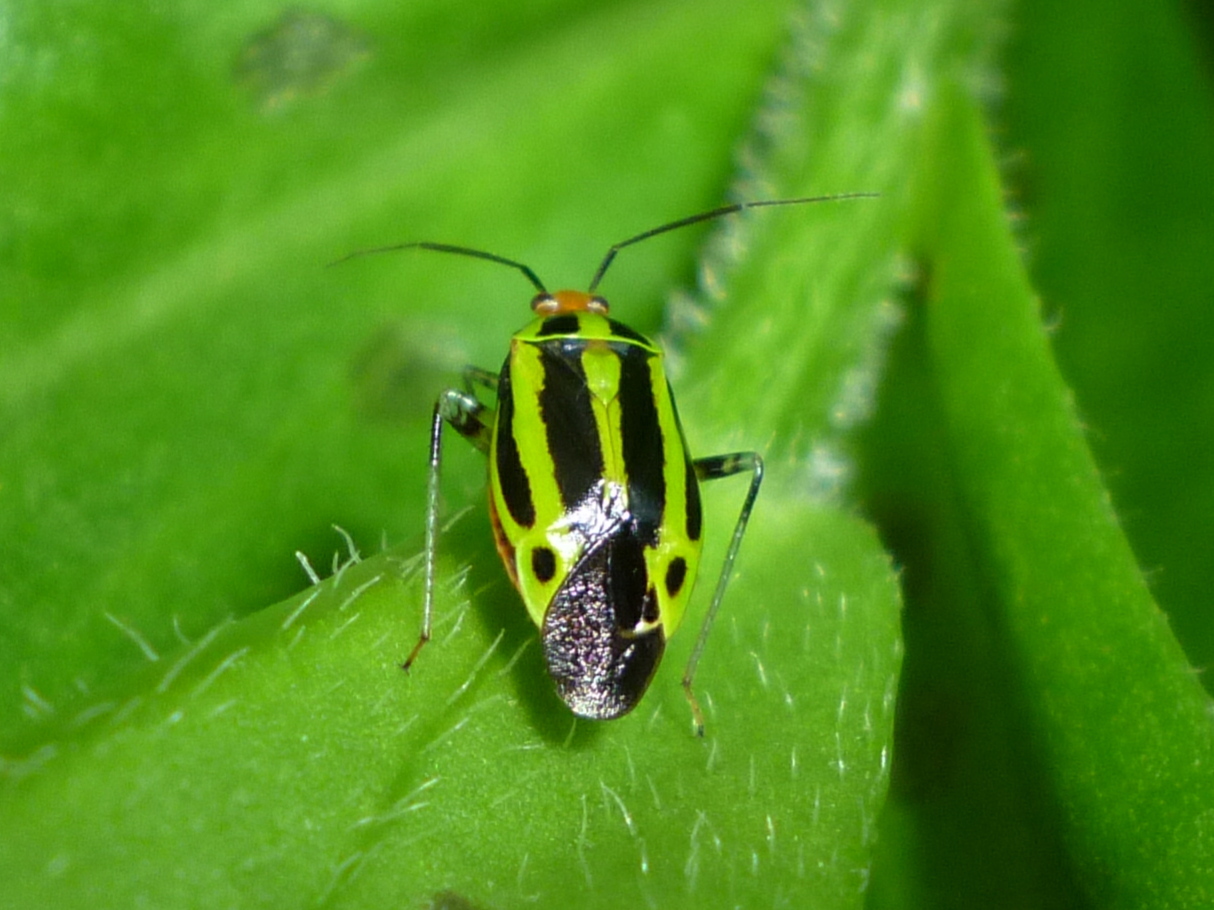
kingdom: Animalia
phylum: Arthropoda
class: Insecta
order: Hemiptera
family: Miridae
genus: Poecilocapsus
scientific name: Poecilocapsus lineatus
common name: Four-lined plant bug
